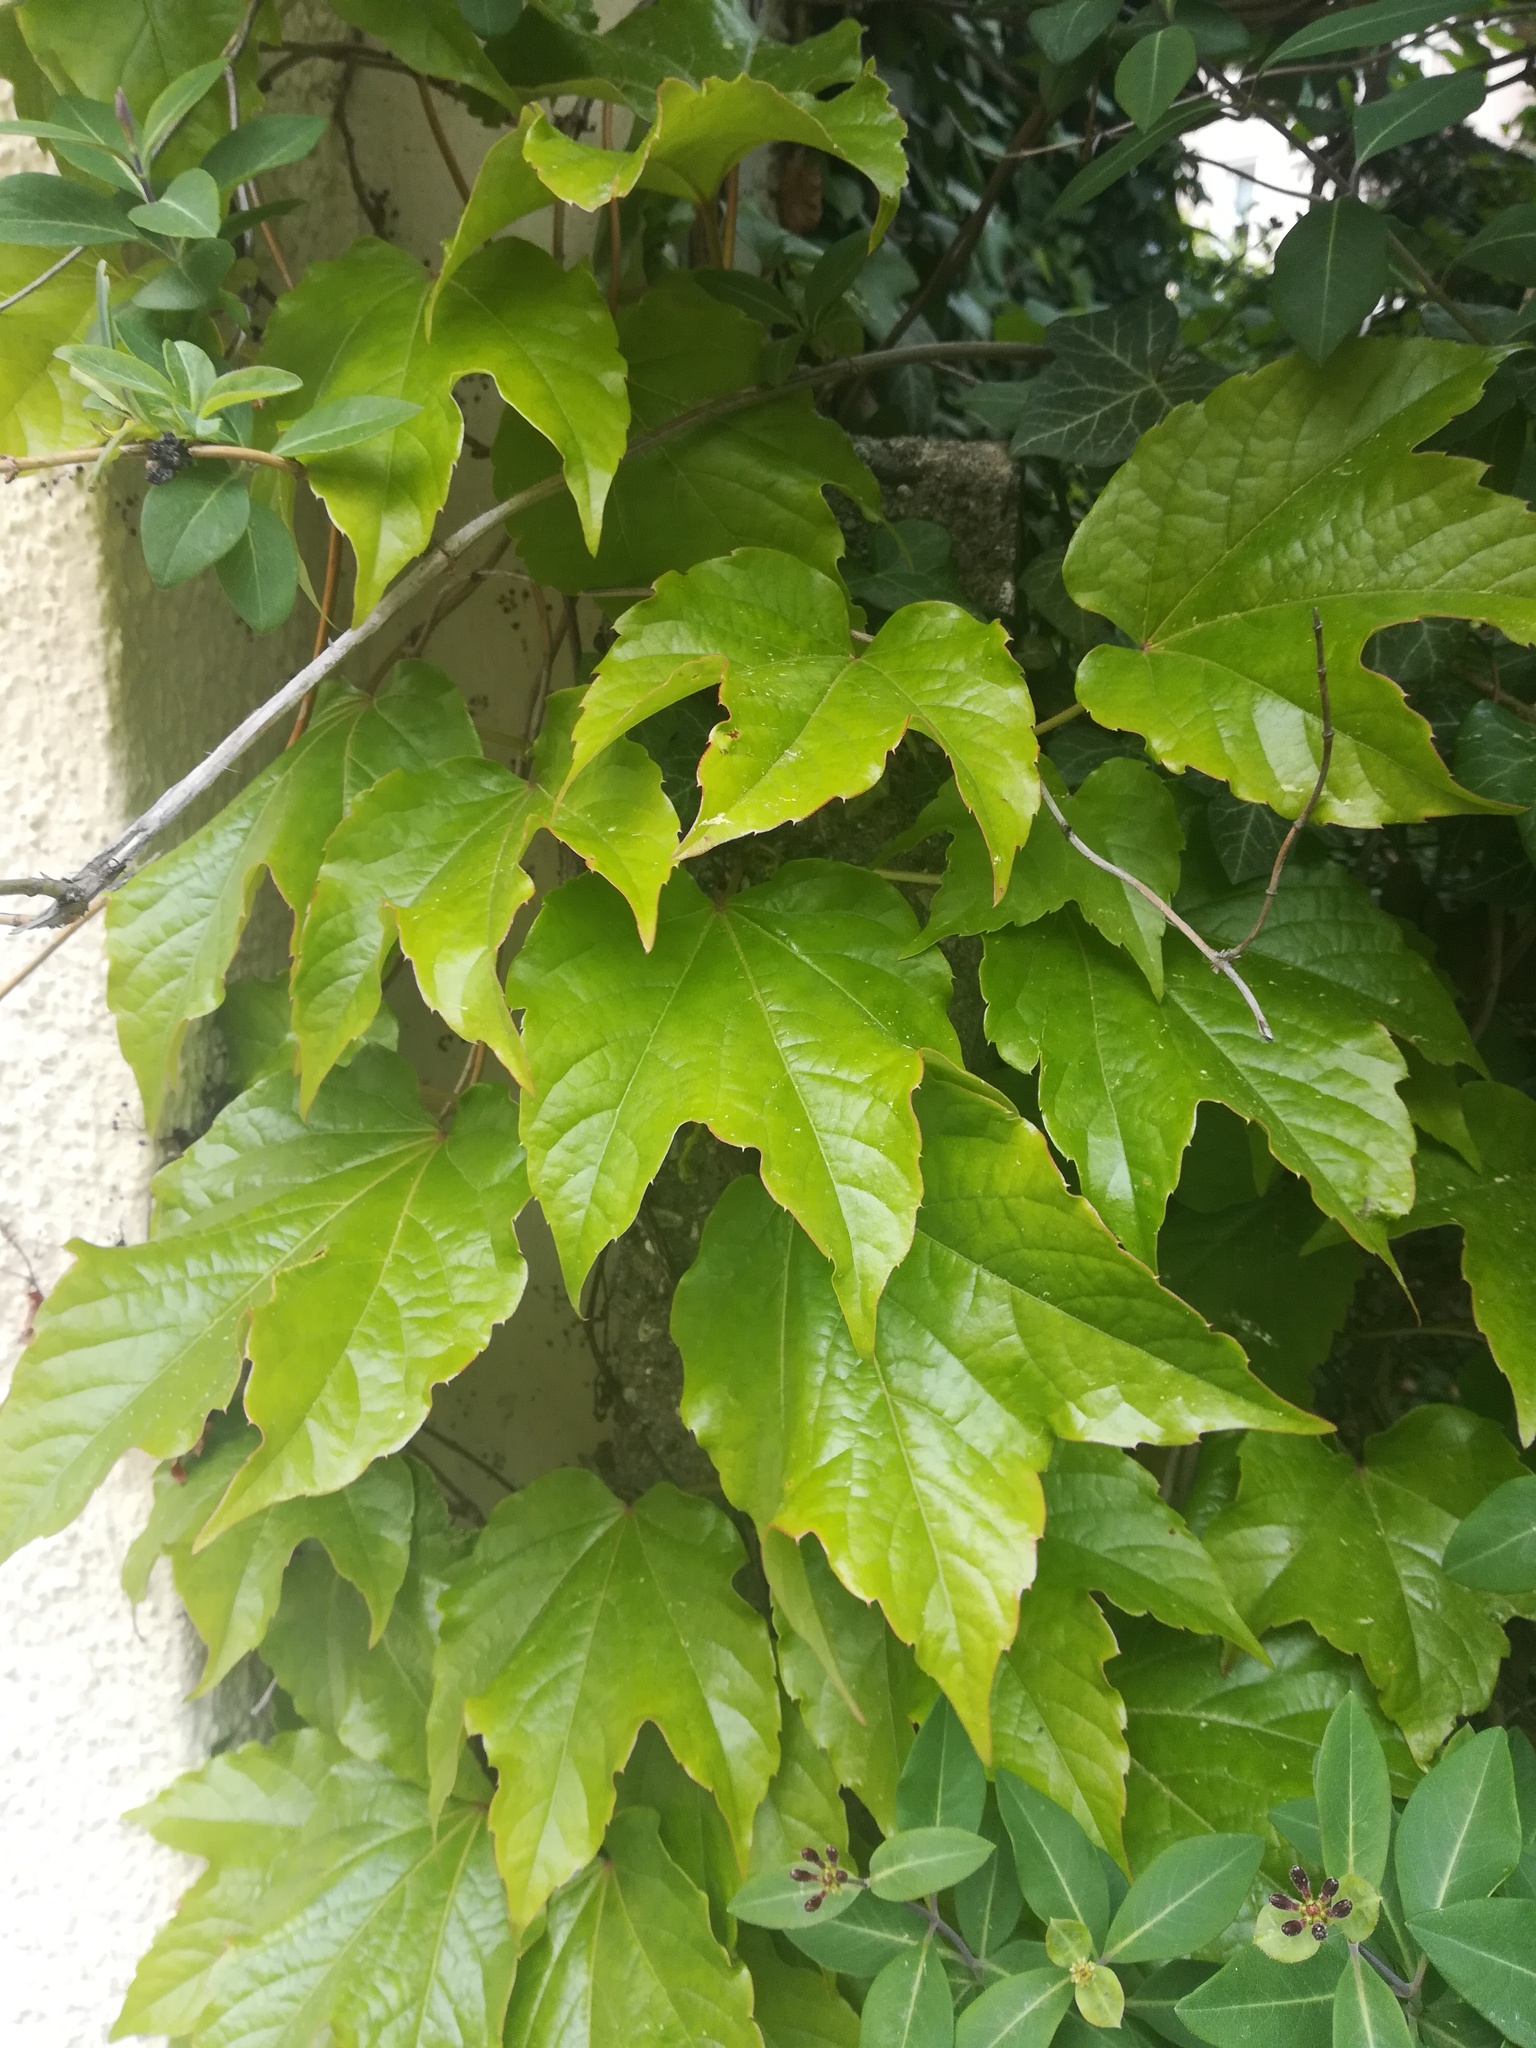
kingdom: Plantae
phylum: Tracheophyta
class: Magnoliopsida
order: Vitales
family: Vitaceae
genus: Parthenocissus
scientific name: Parthenocissus tricuspidata
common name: Boston ivy
